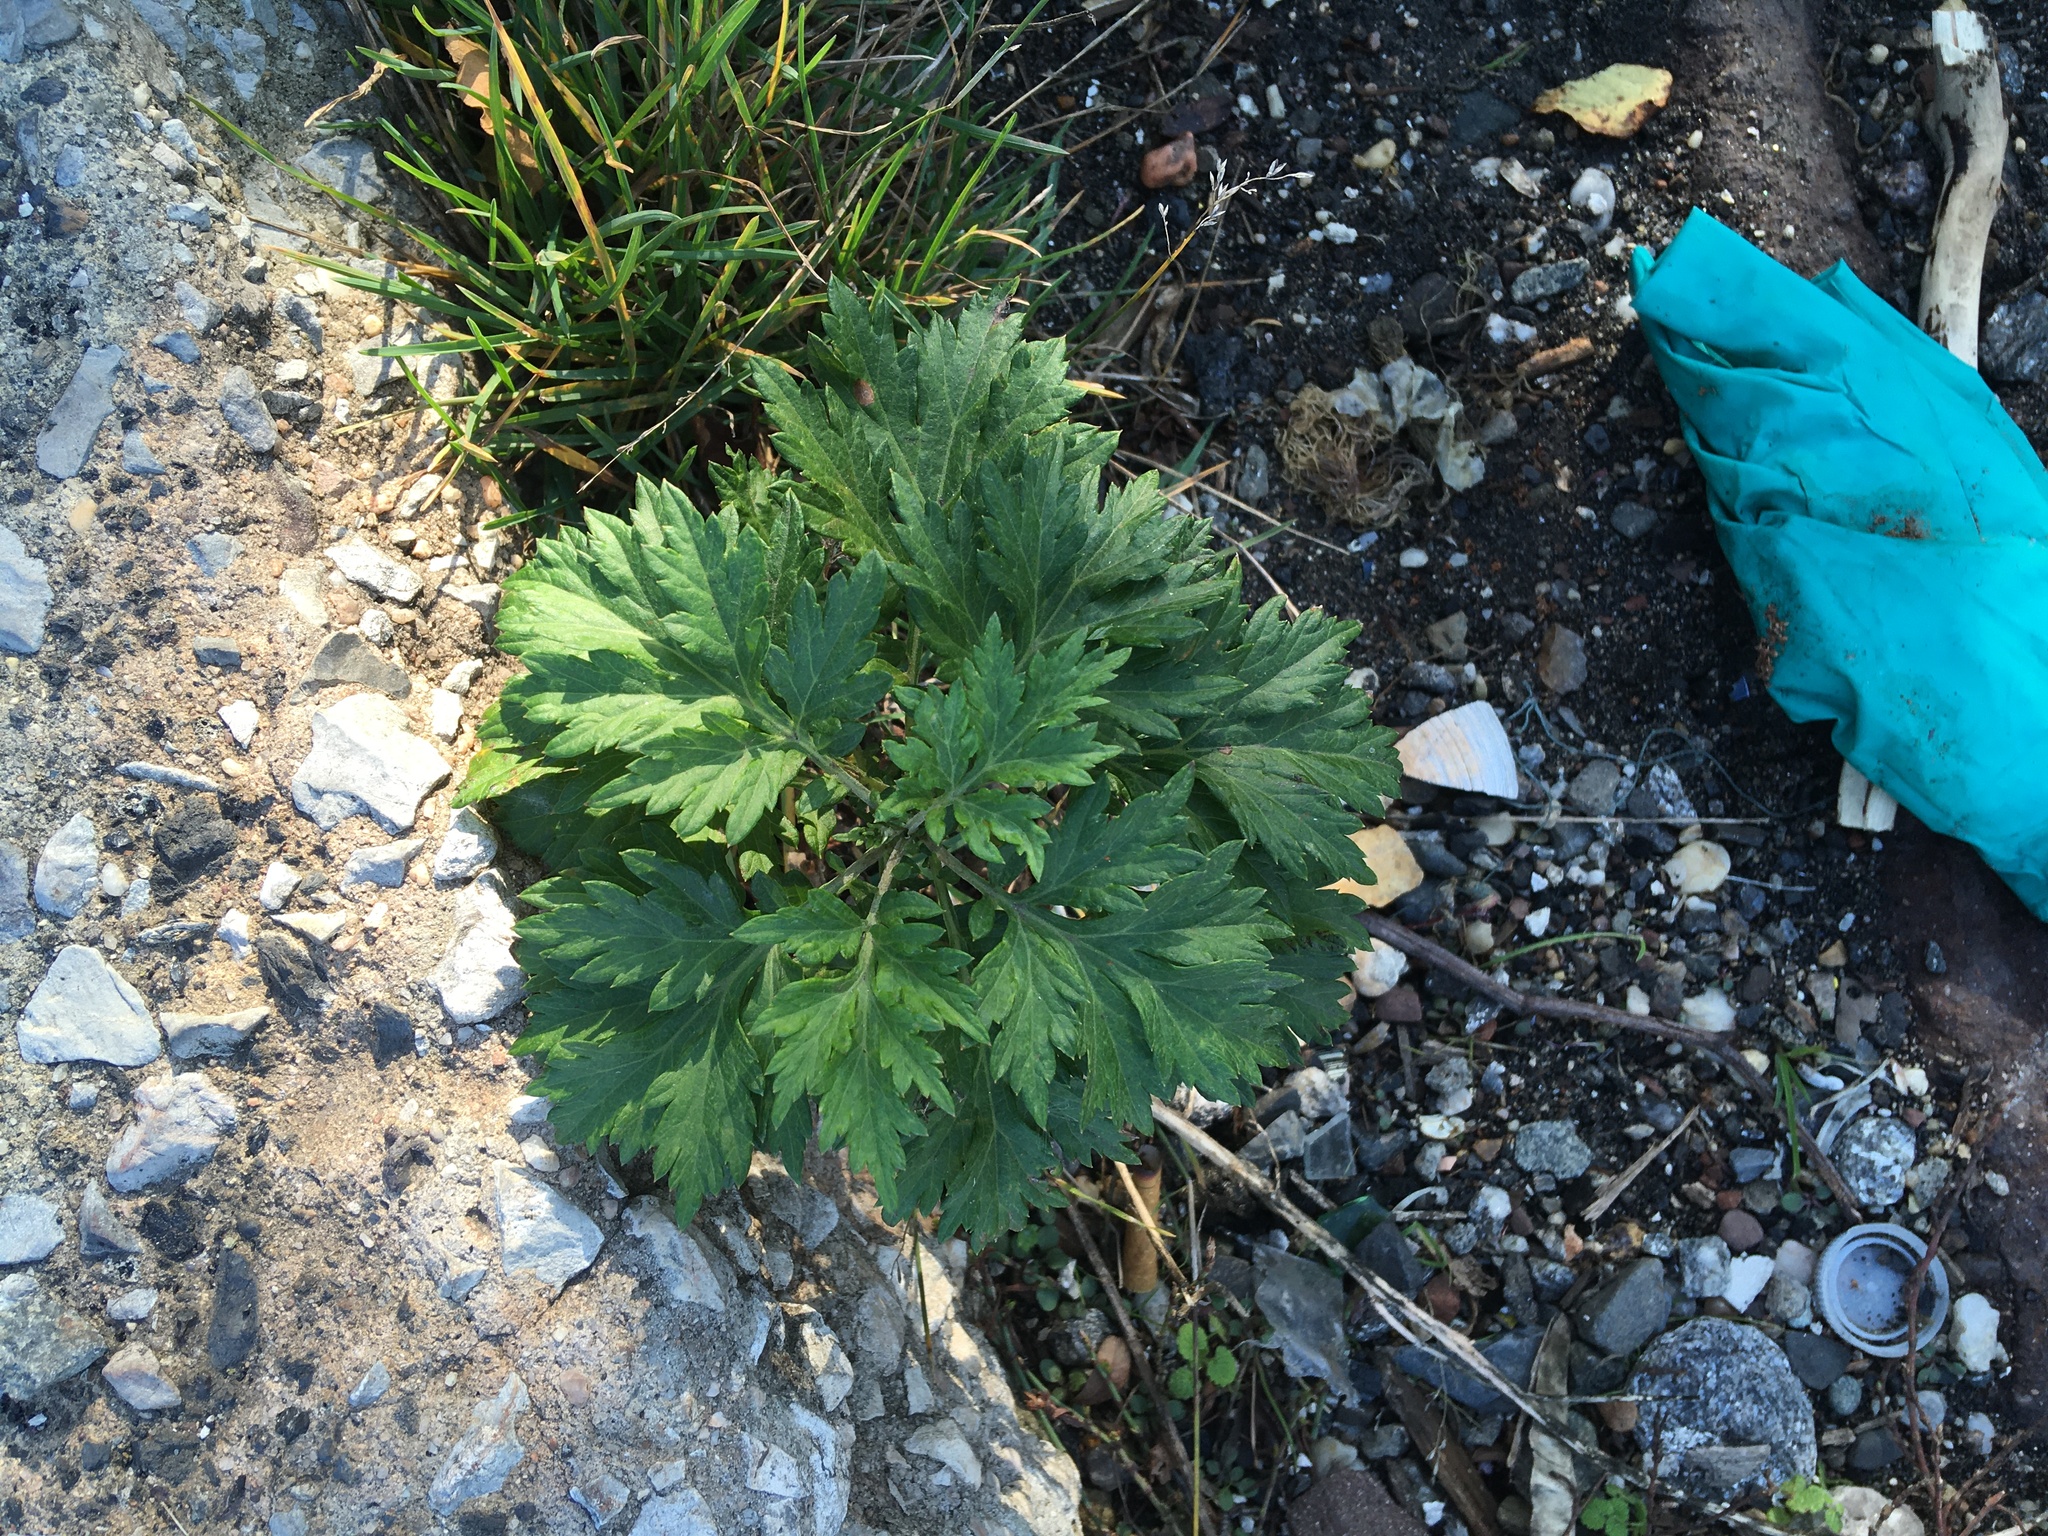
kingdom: Plantae
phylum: Tracheophyta
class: Magnoliopsida
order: Asterales
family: Asteraceae
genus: Artemisia
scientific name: Artemisia vulgaris
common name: Mugwort
